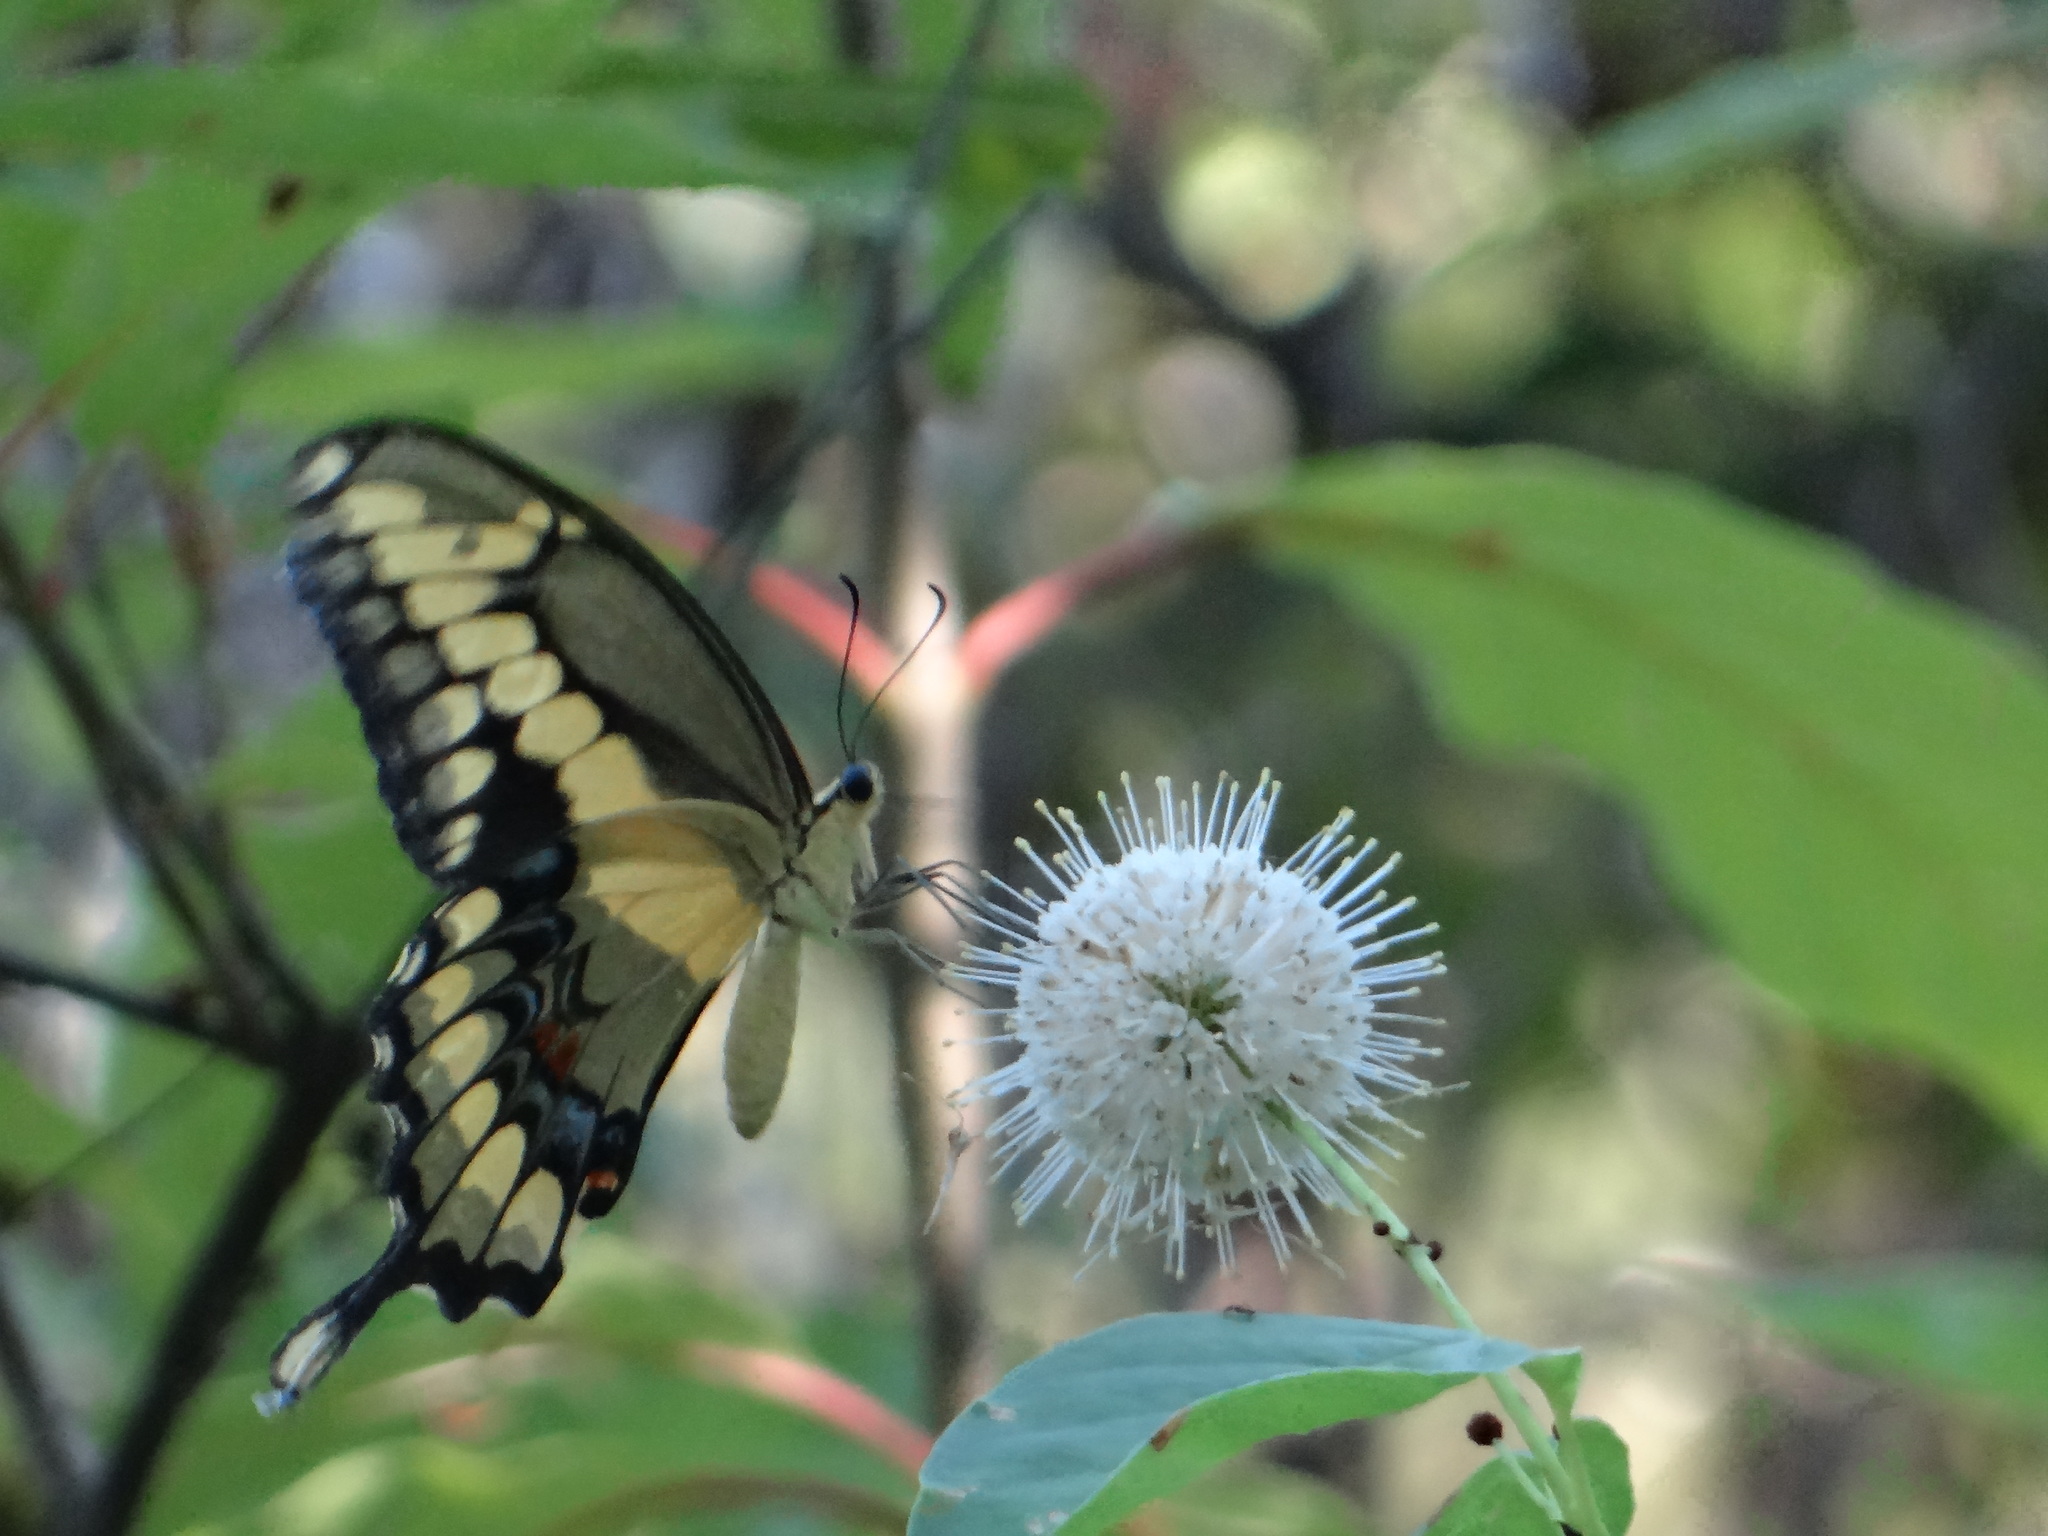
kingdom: Animalia
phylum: Arthropoda
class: Insecta
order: Lepidoptera
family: Papilionidae
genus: Papilio
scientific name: Papilio cresphontes
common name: Giant swallowtail
